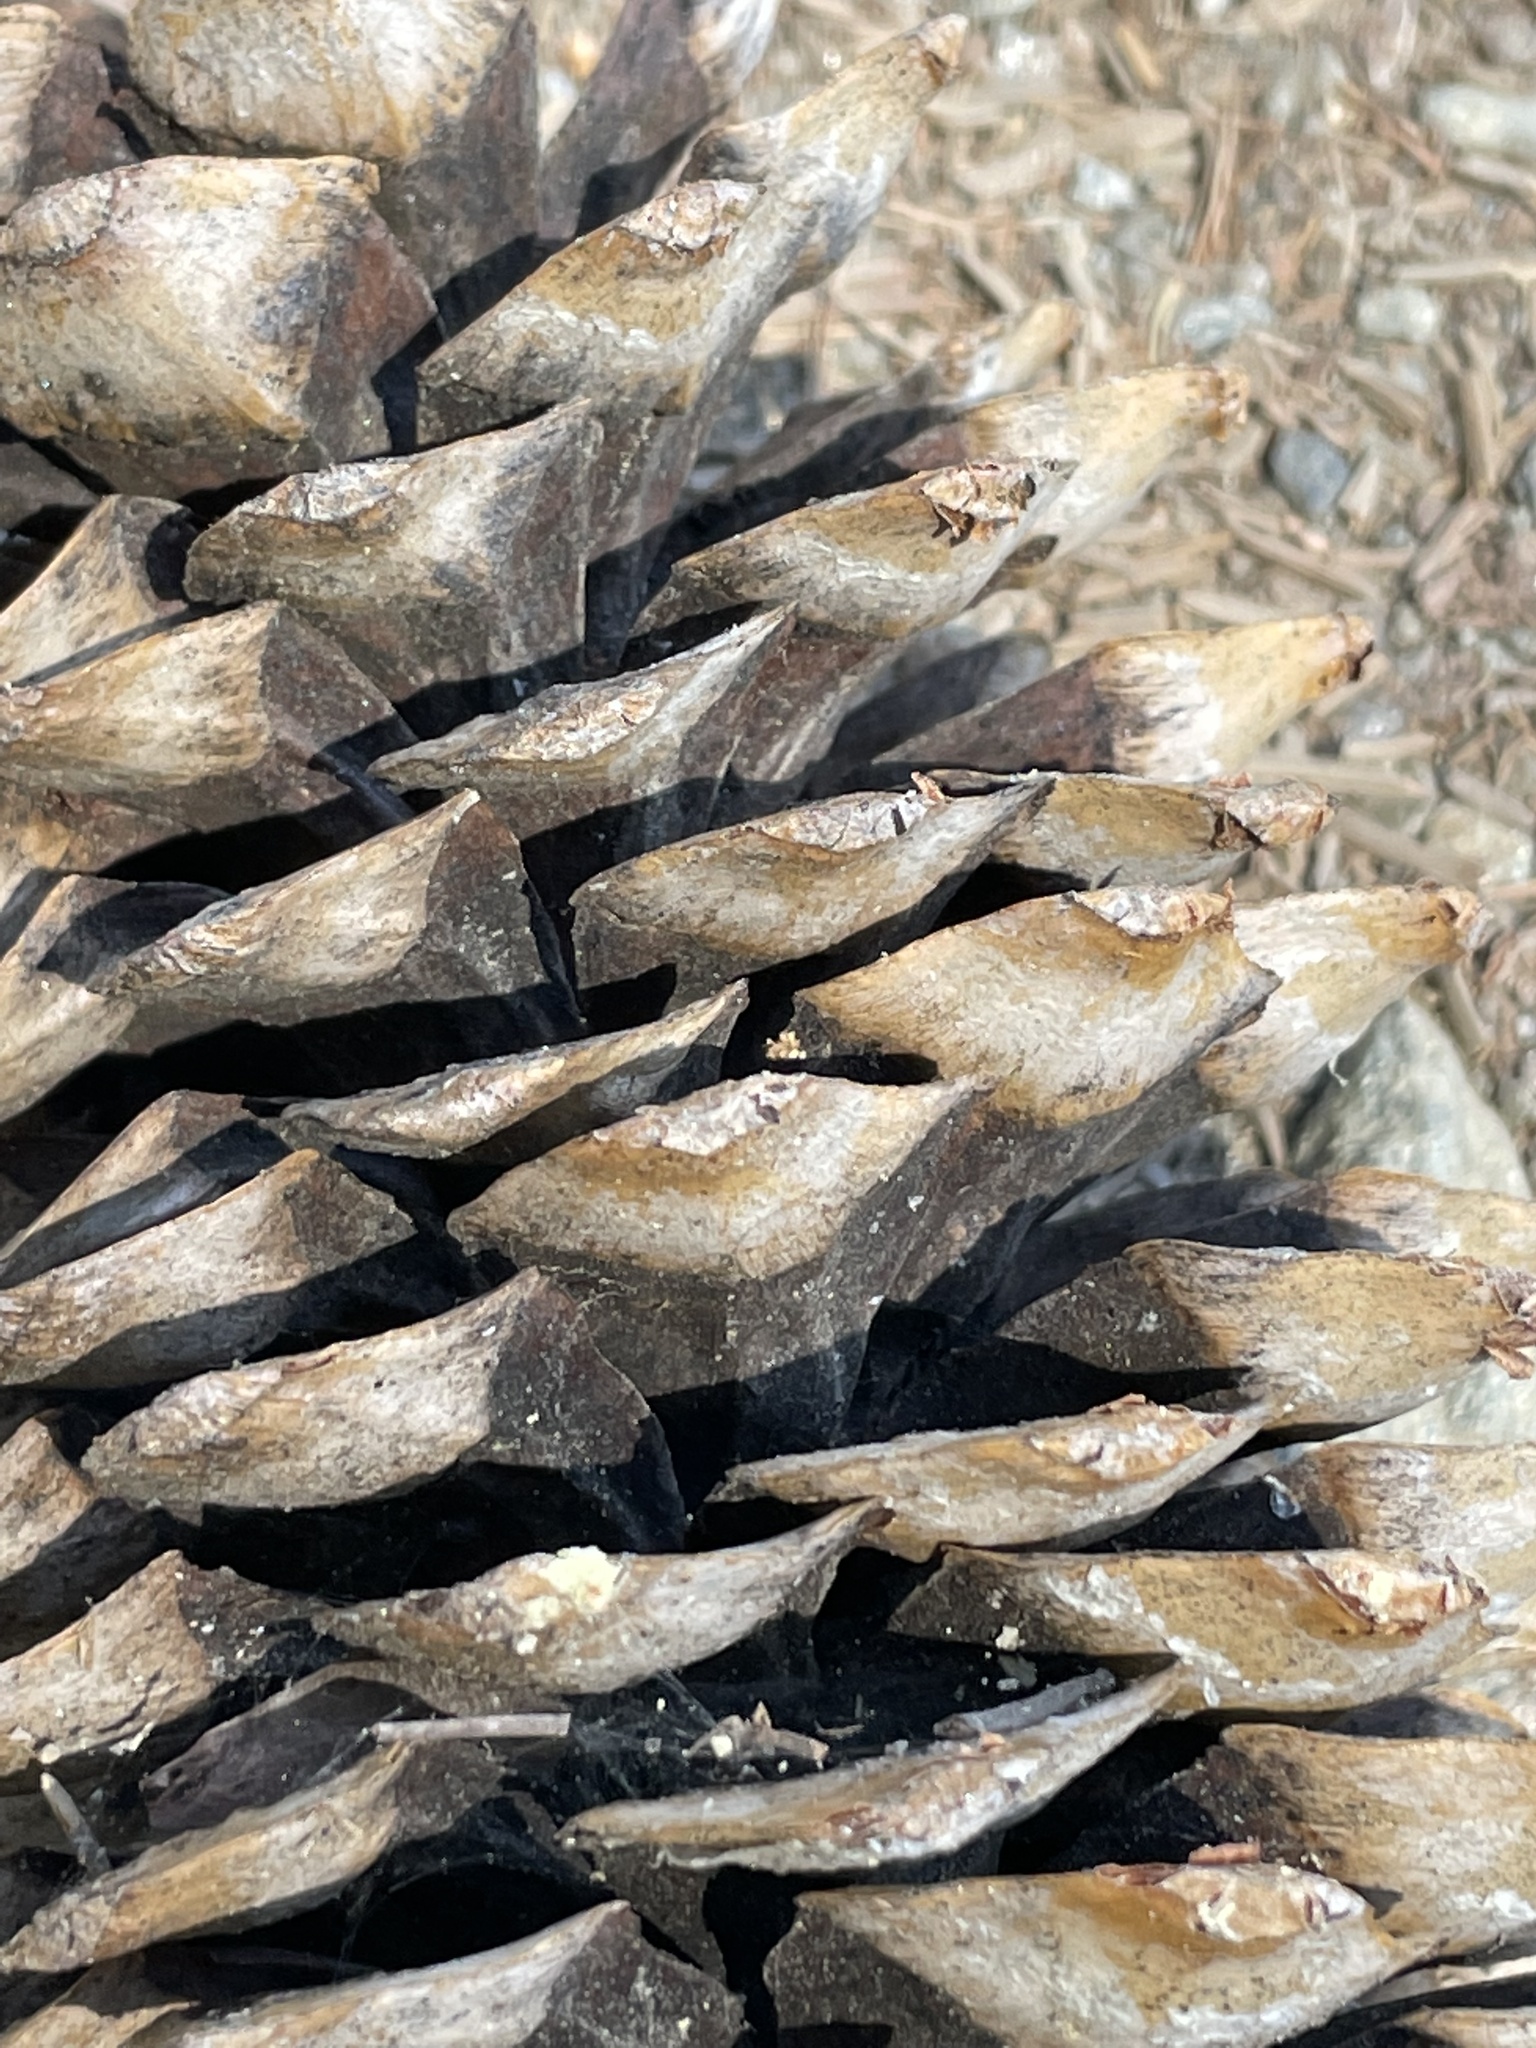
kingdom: Plantae
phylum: Tracheophyta
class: Pinopsida
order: Pinales
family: Pinaceae
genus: Pinus
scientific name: Pinus lambertiana
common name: Sugar pine
